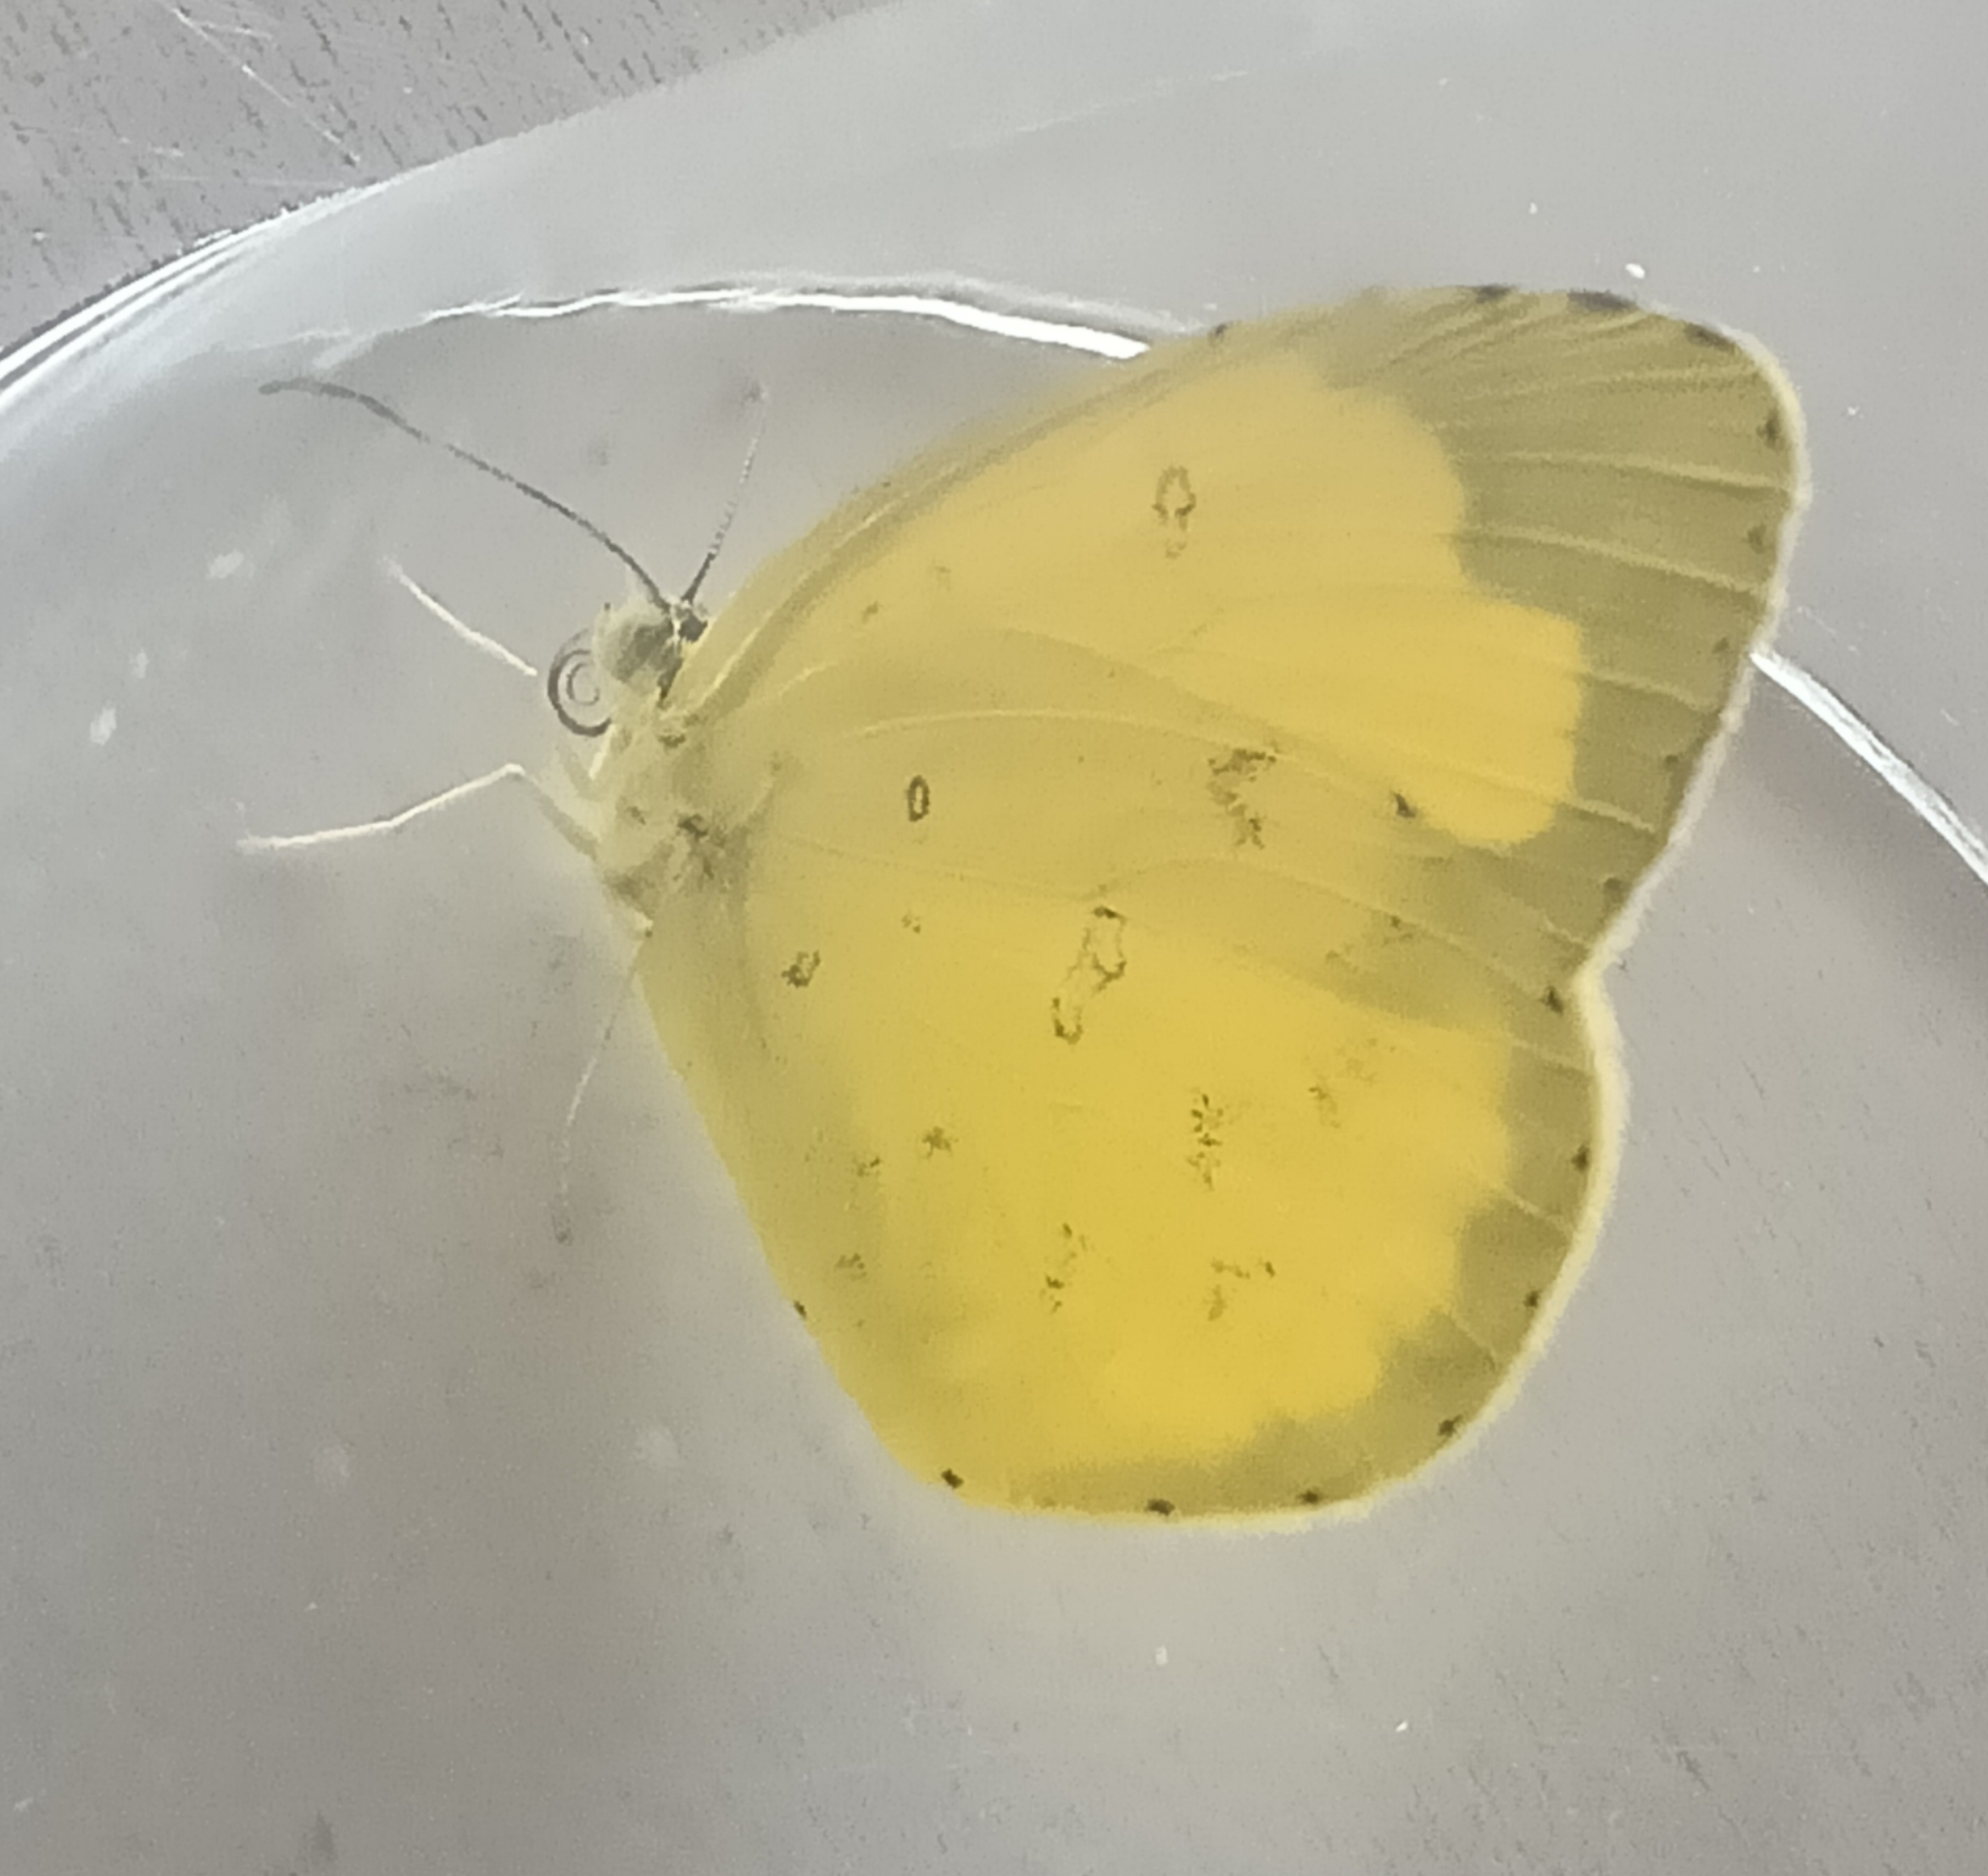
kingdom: Animalia
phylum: Arthropoda
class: Insecta
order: Lepidoptera
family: Pieridae
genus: Eurema
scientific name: Eurema hecabe
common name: Pale grass yellow
